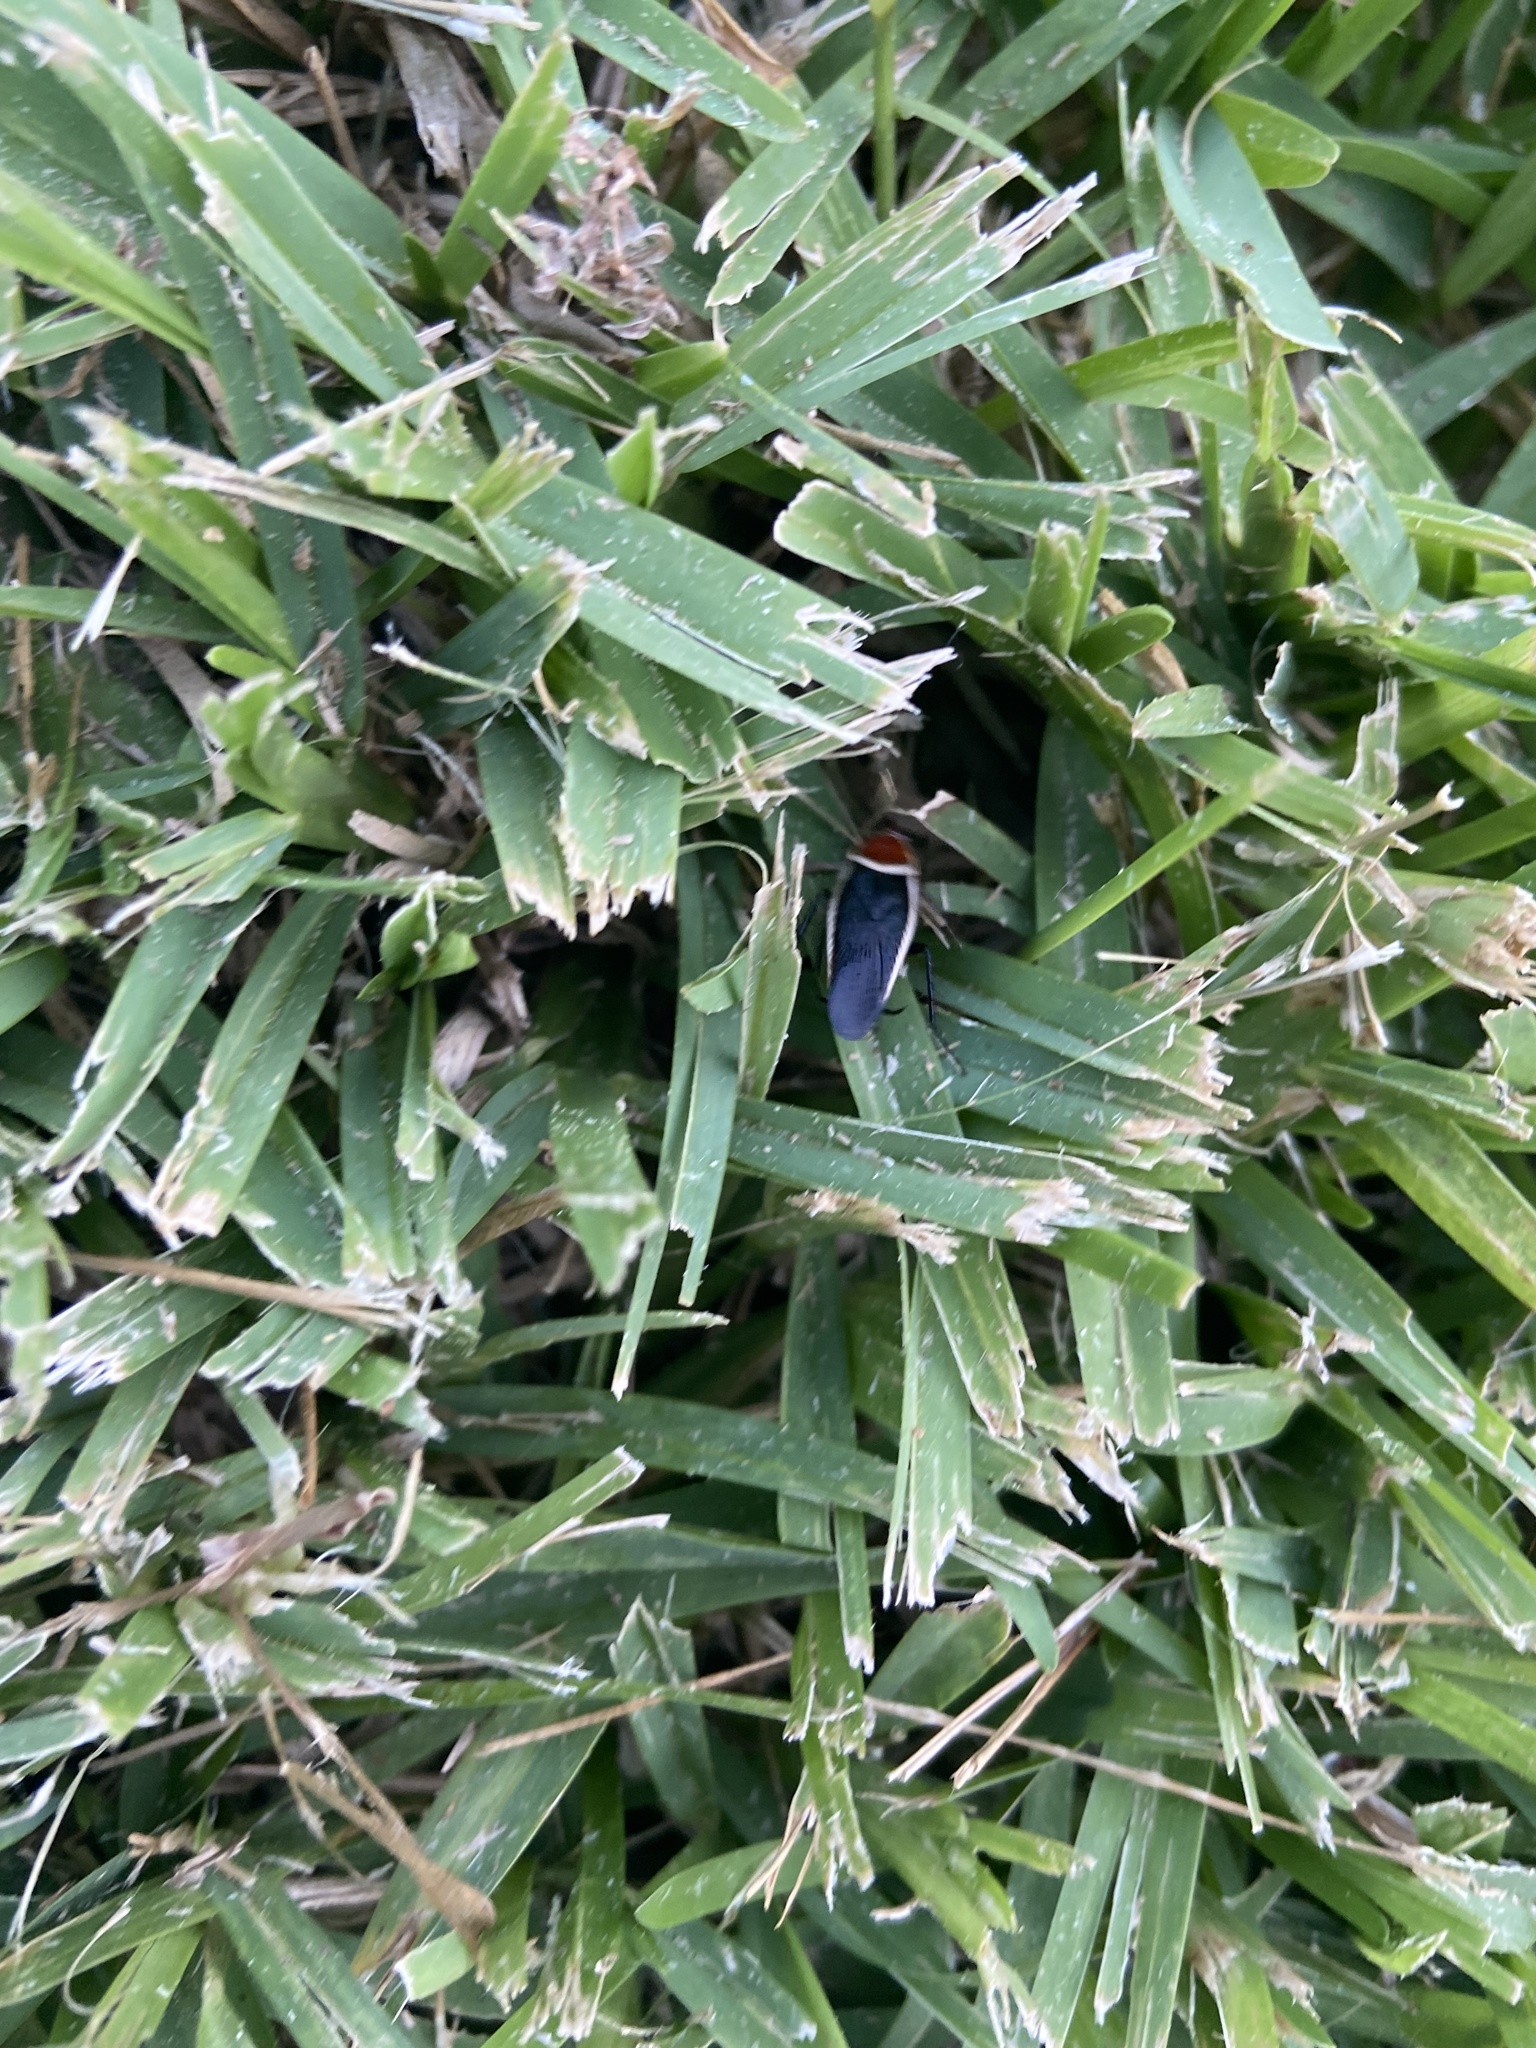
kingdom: Animalia
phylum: Arthropoda
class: Insecta
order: Blattodea
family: Ectobiidae
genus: Pseudomops
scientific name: Pseudomops septentrionalis
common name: Pale-bordered field cockroach
